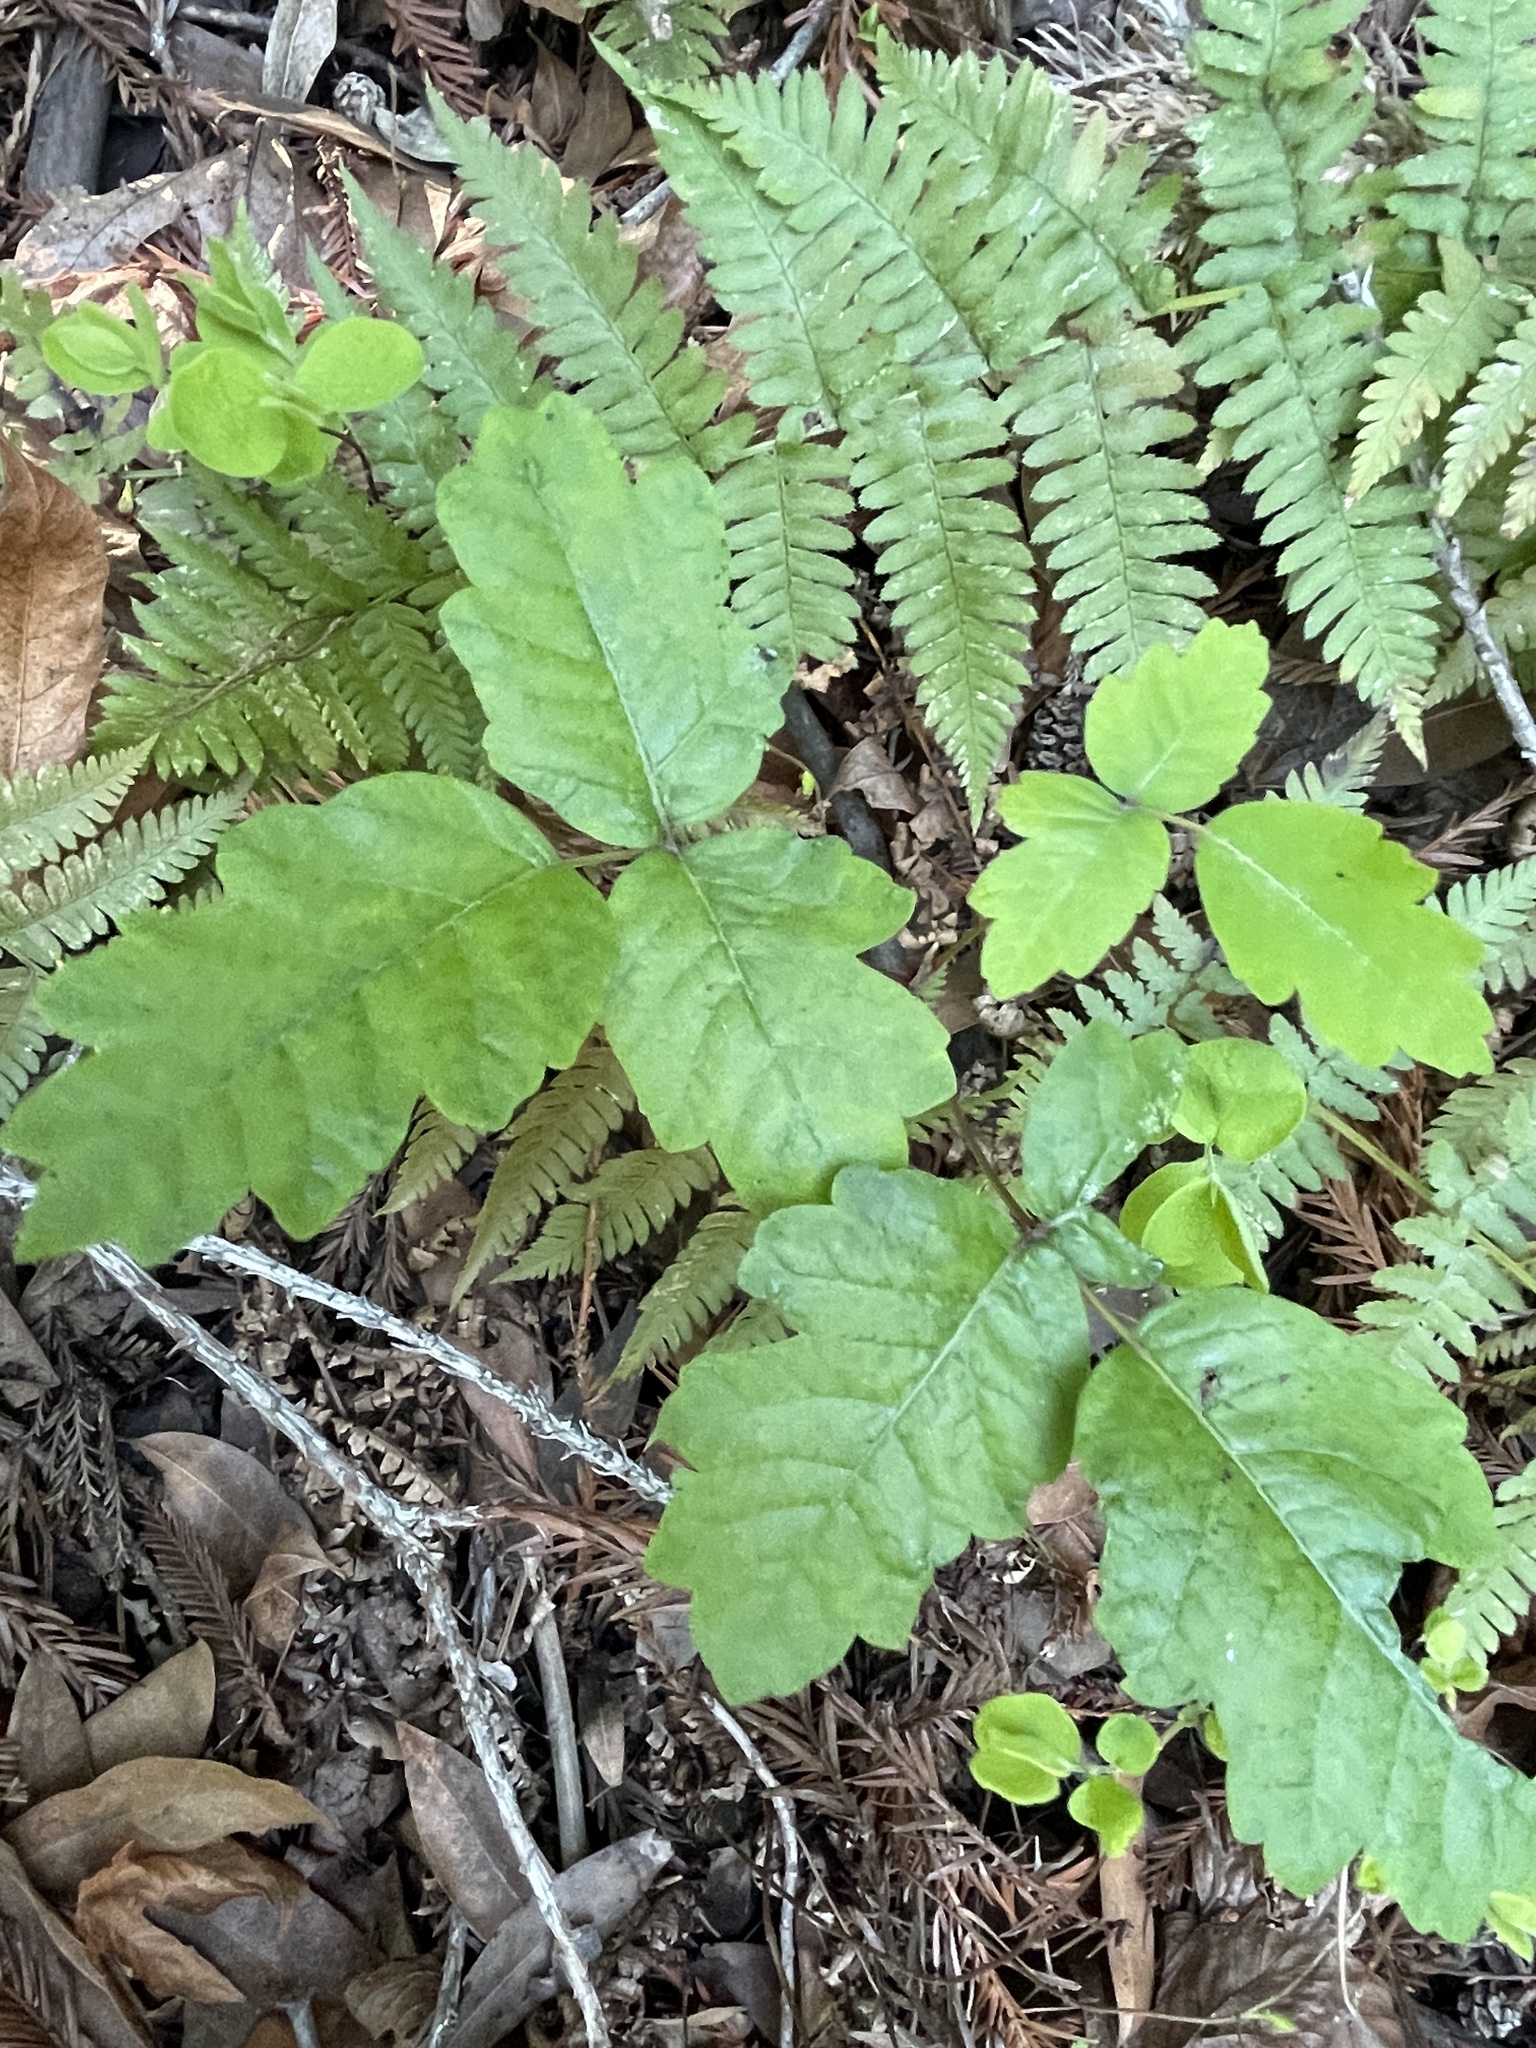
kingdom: Plantae
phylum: Tracheophyta
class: Magnoliopsida
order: Sapindales
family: Anacardiaceae
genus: Toxicodendron
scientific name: Toxicodendron diversilobum
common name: Pacific poison-oak
